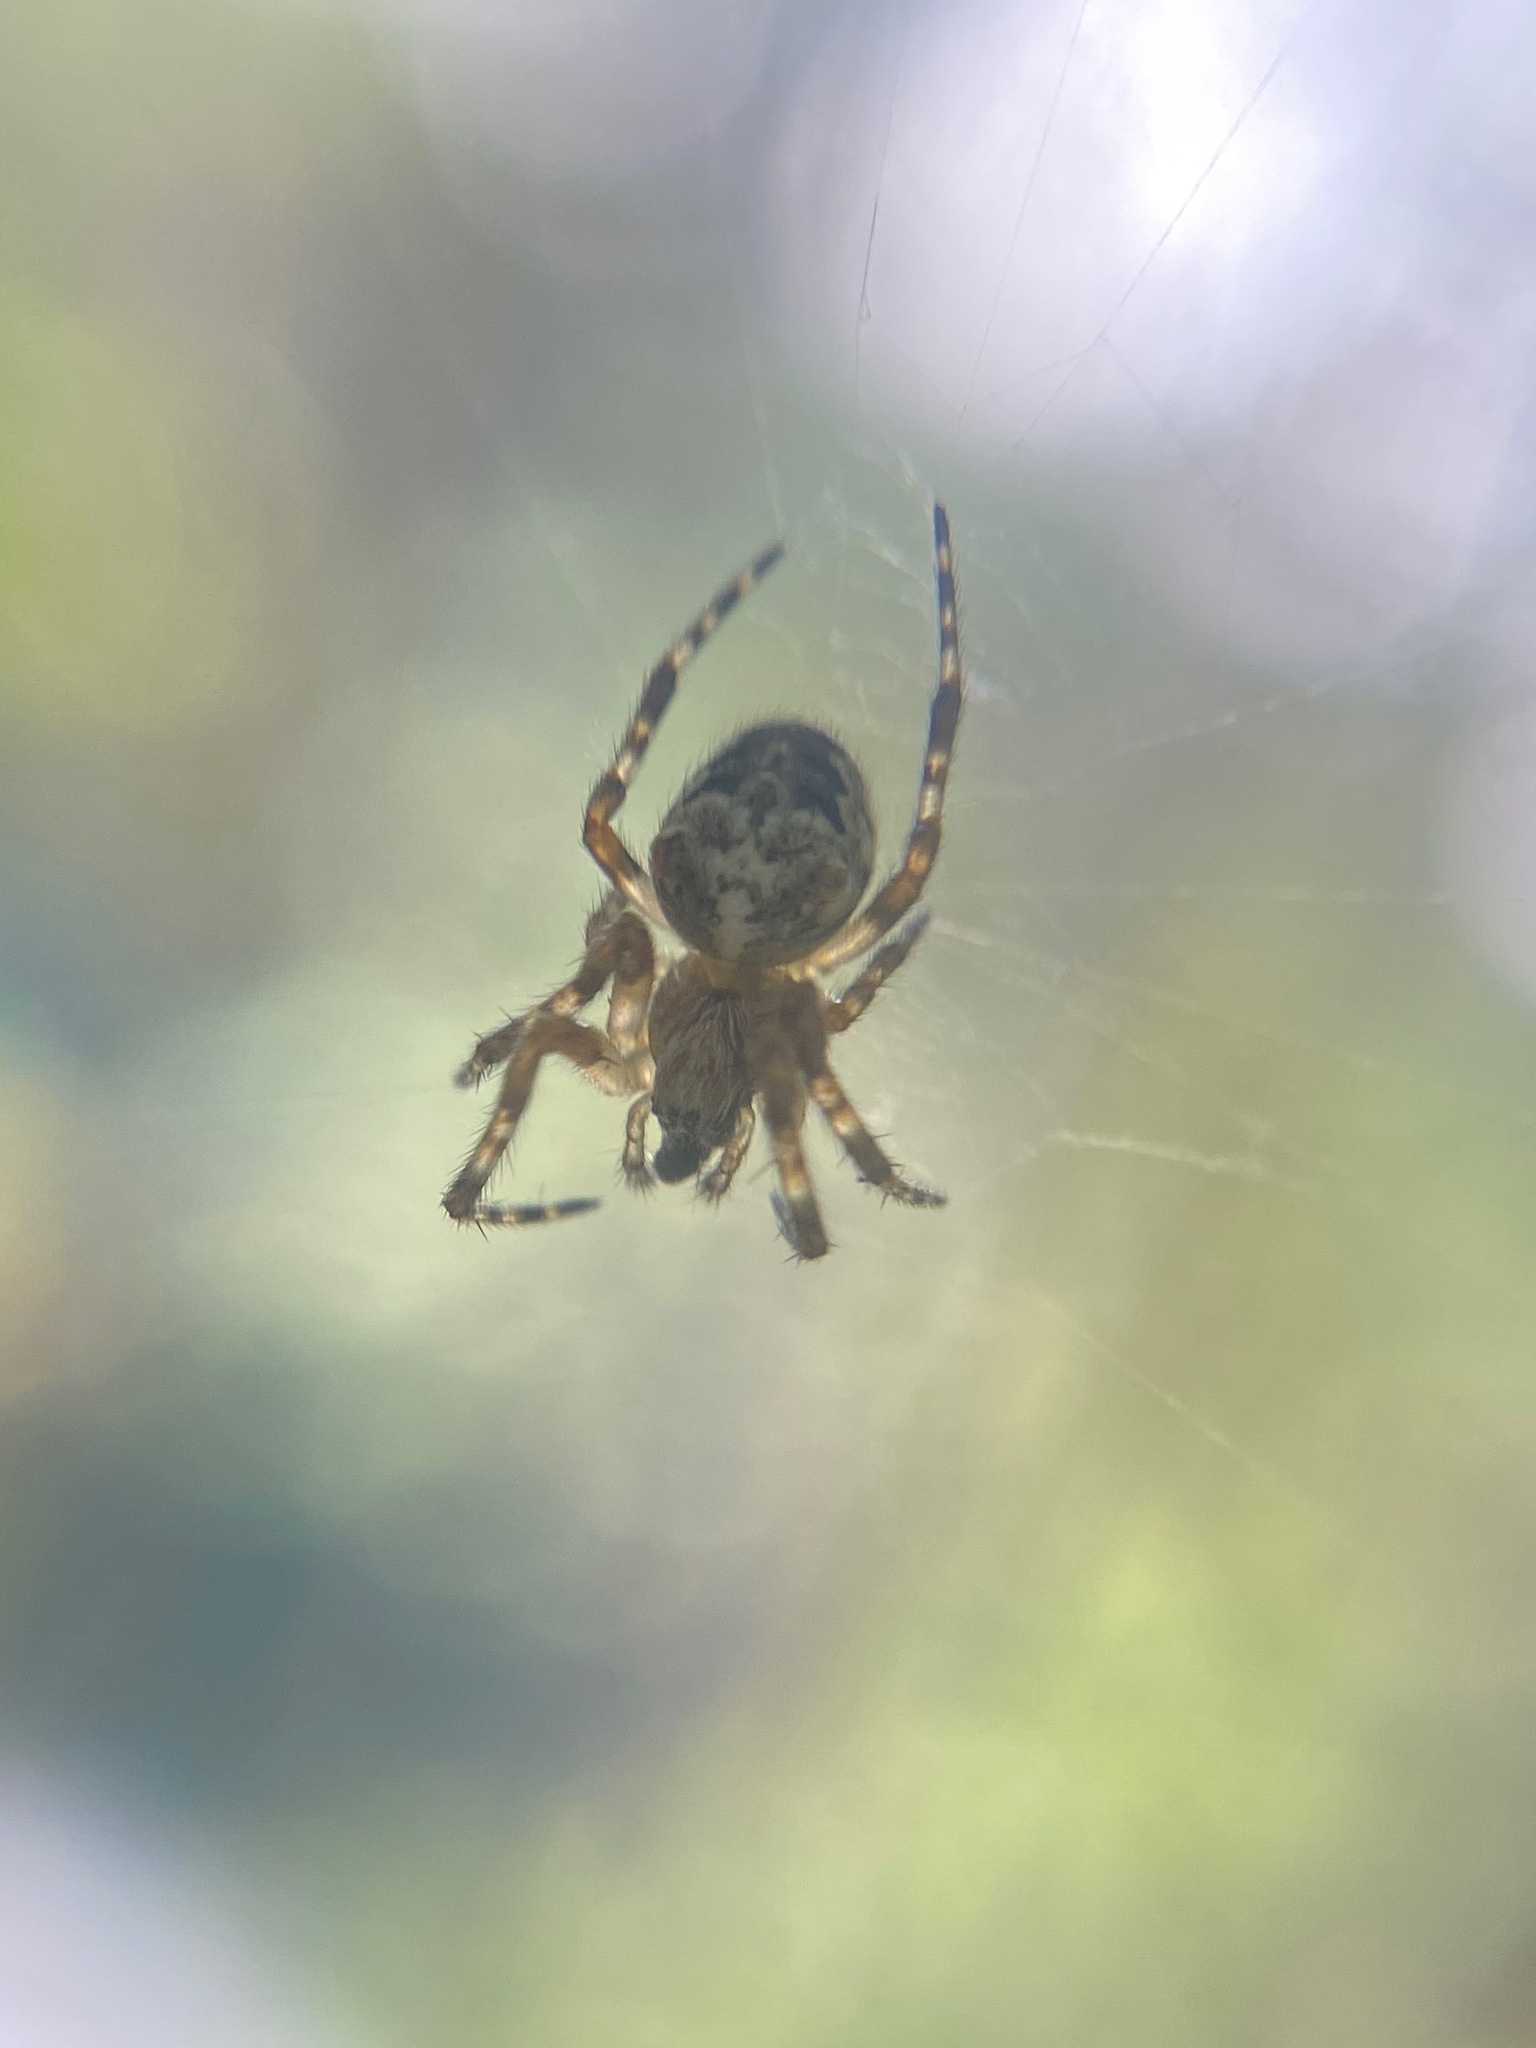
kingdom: Animalia
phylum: Arthropoda
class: Arachnida
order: Araneae
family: Araneidae
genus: Araneus
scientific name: Araneus nordmanni
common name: Nordmann's orbweaver
